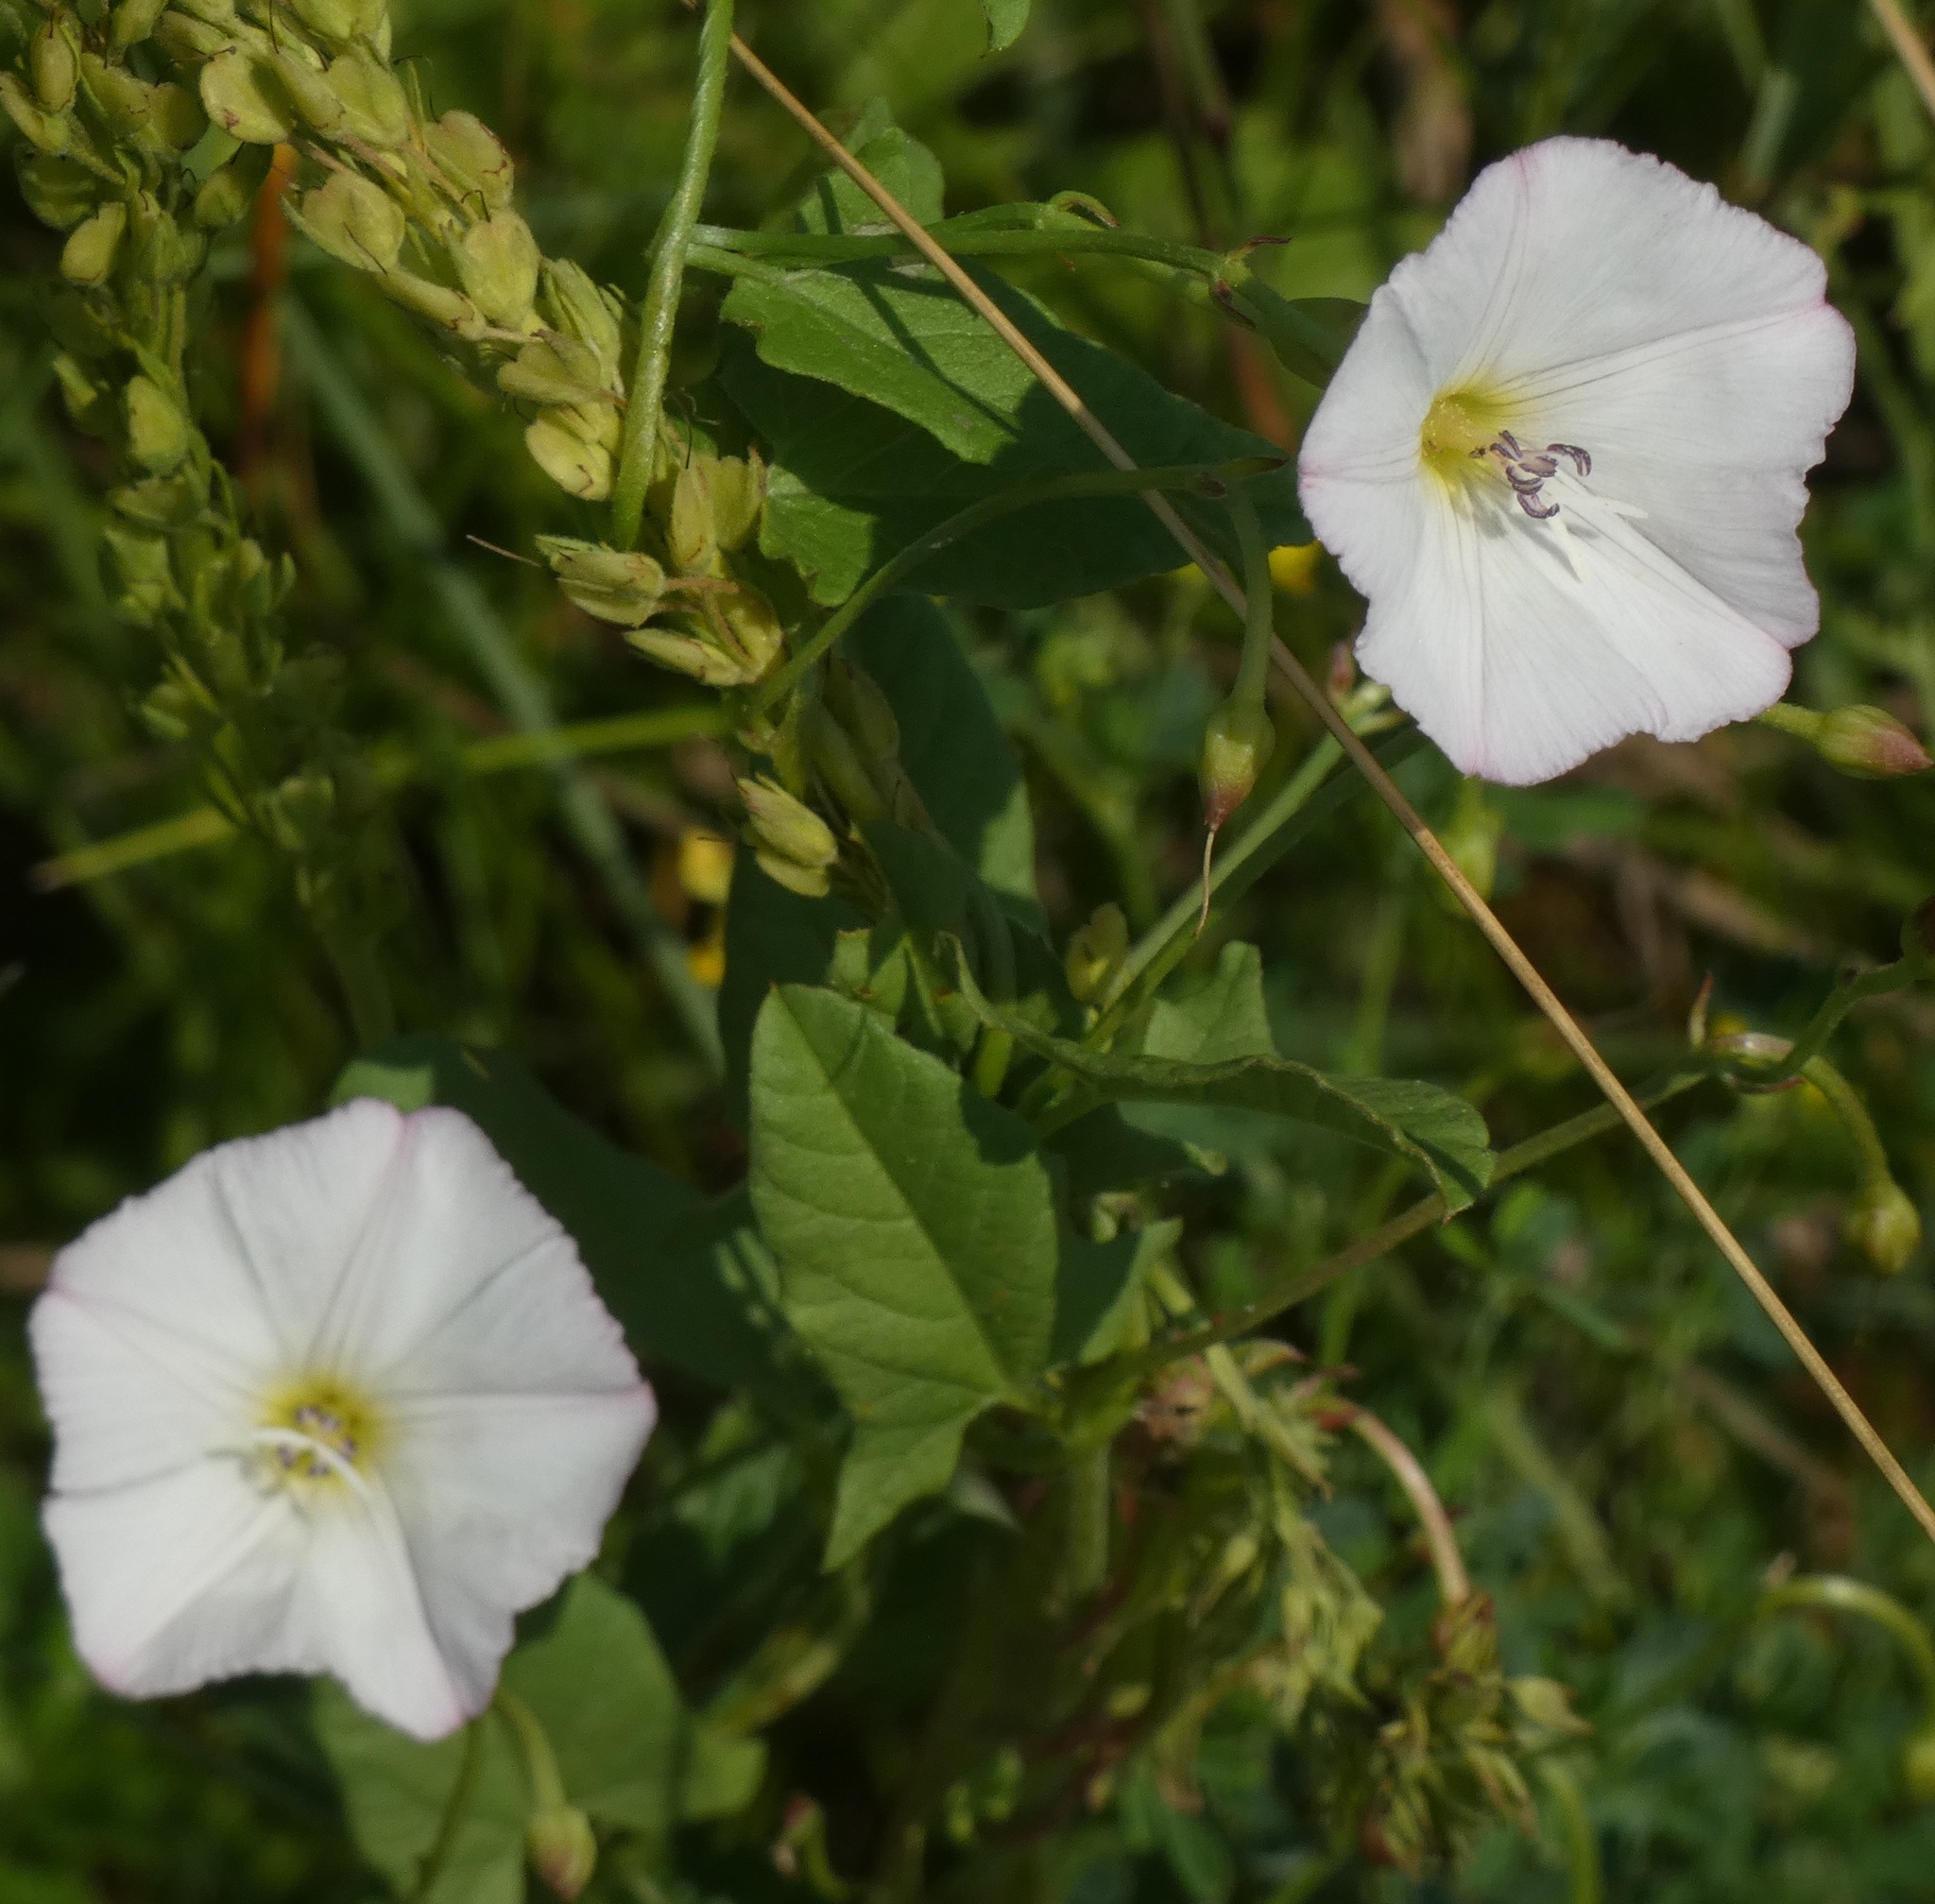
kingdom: Plantae
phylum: Tracheophyta
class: Magnoliopsida
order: Solanales
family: Convolvulaceae
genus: Convolvulus
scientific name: Convolvulus arvensis
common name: Field bindweed
